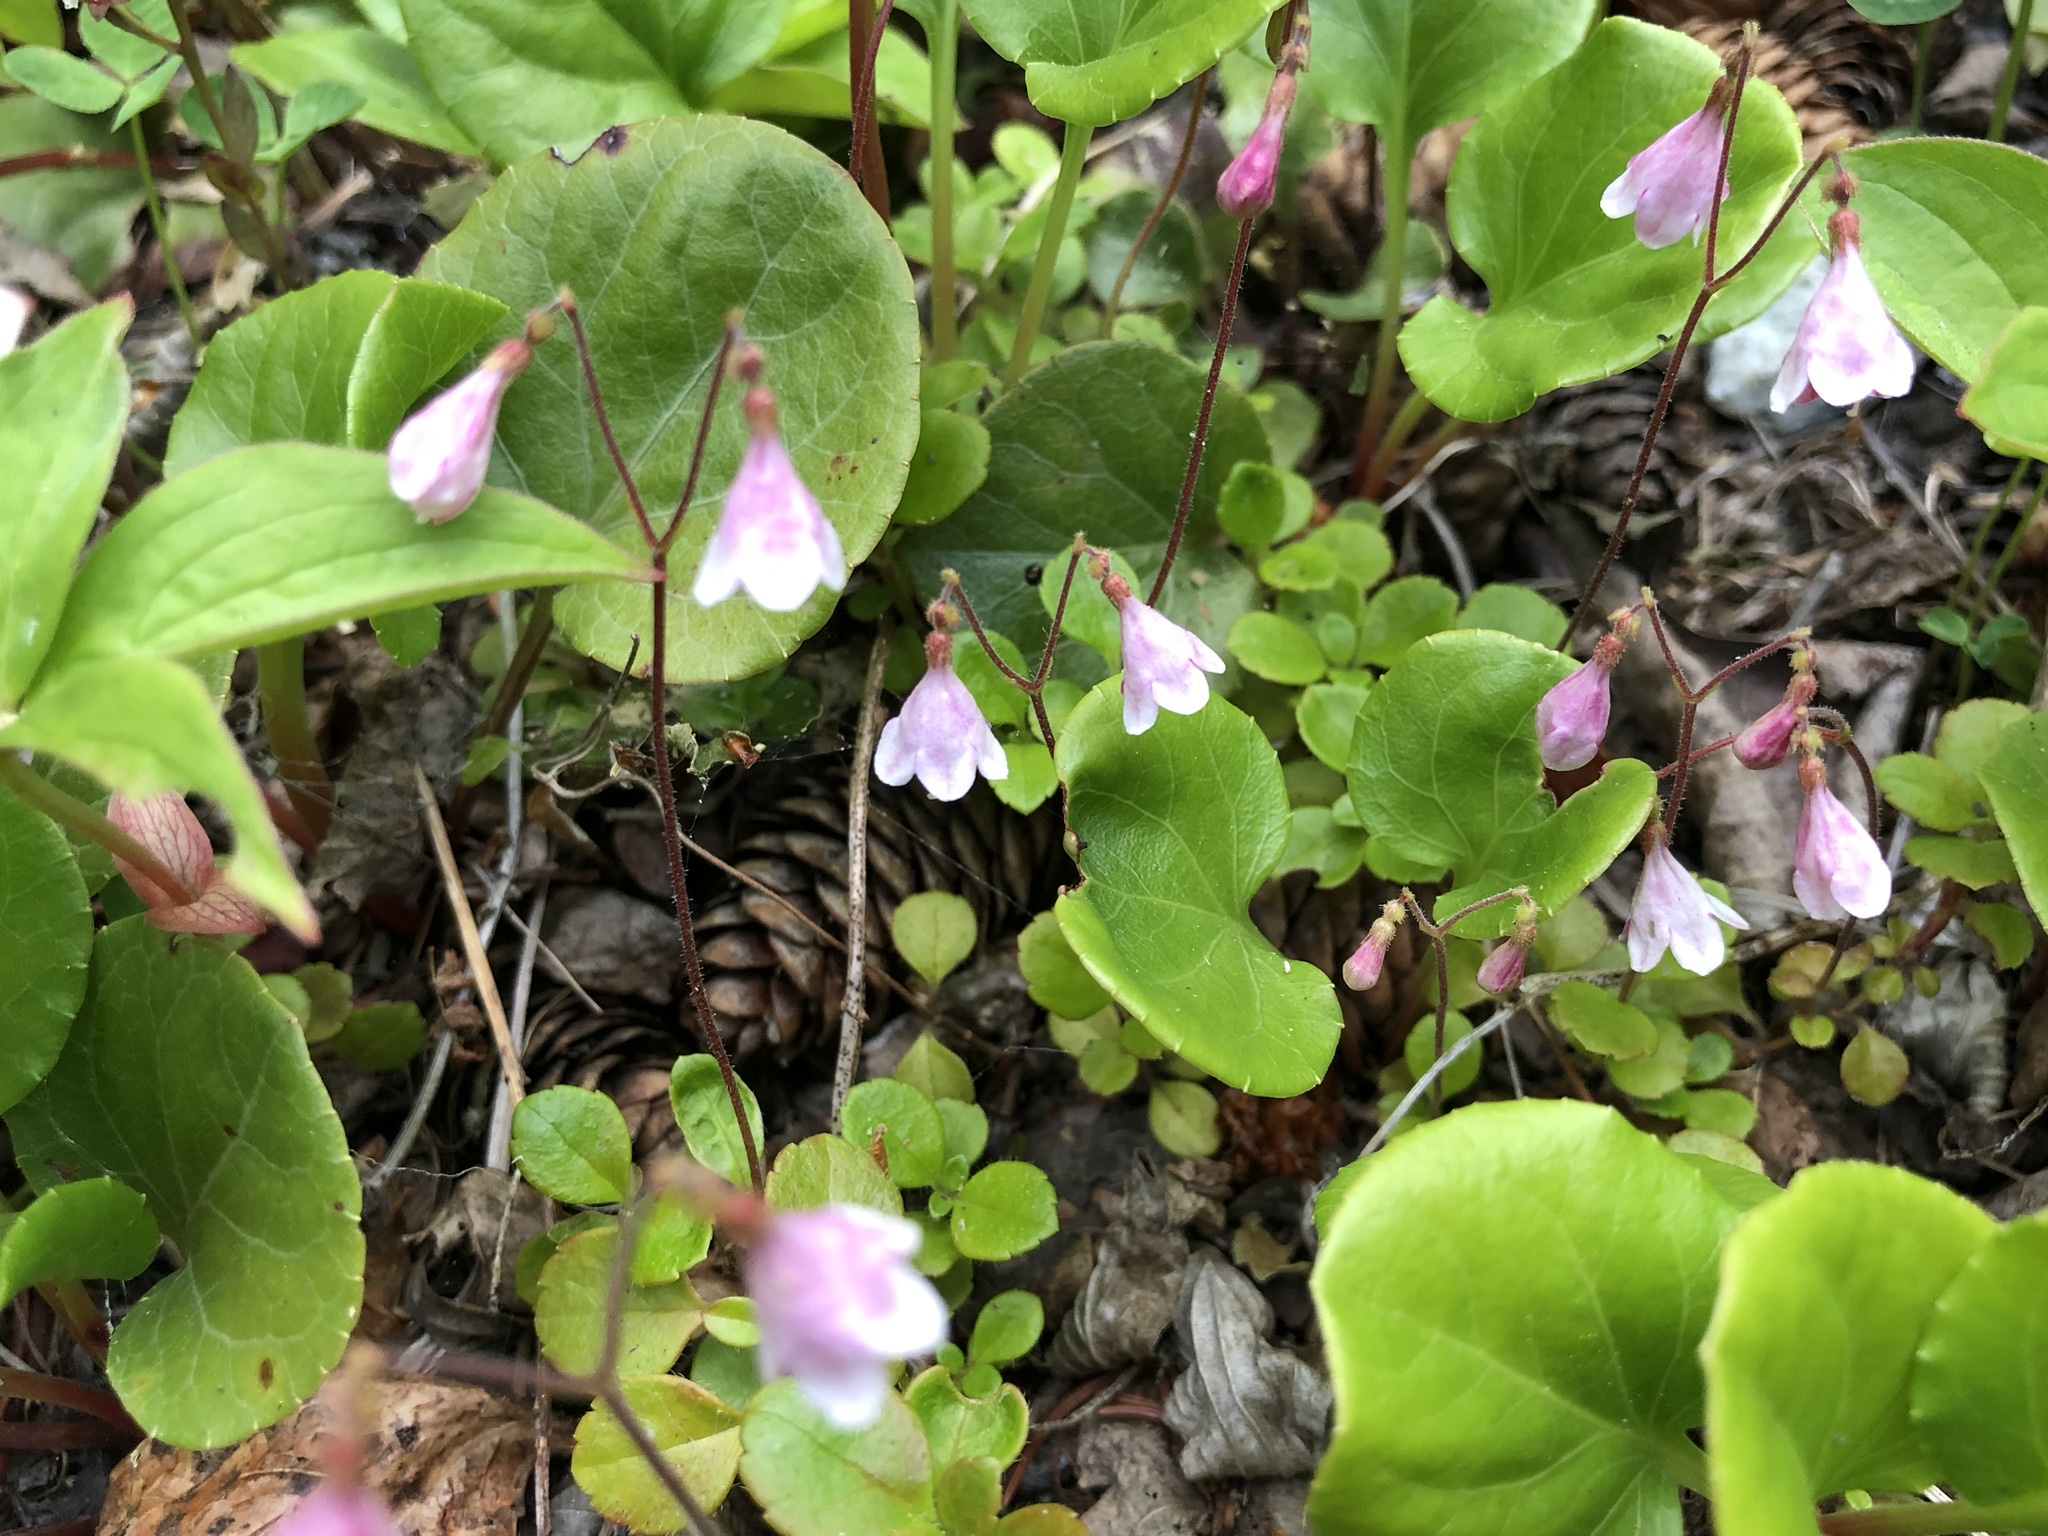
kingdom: Plantae
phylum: Tracheophyta
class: Magnoliopsida
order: Dipsacales
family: Caprifoliaceae
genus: Linnaea
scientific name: Linnaea borealis
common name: Twinflower
